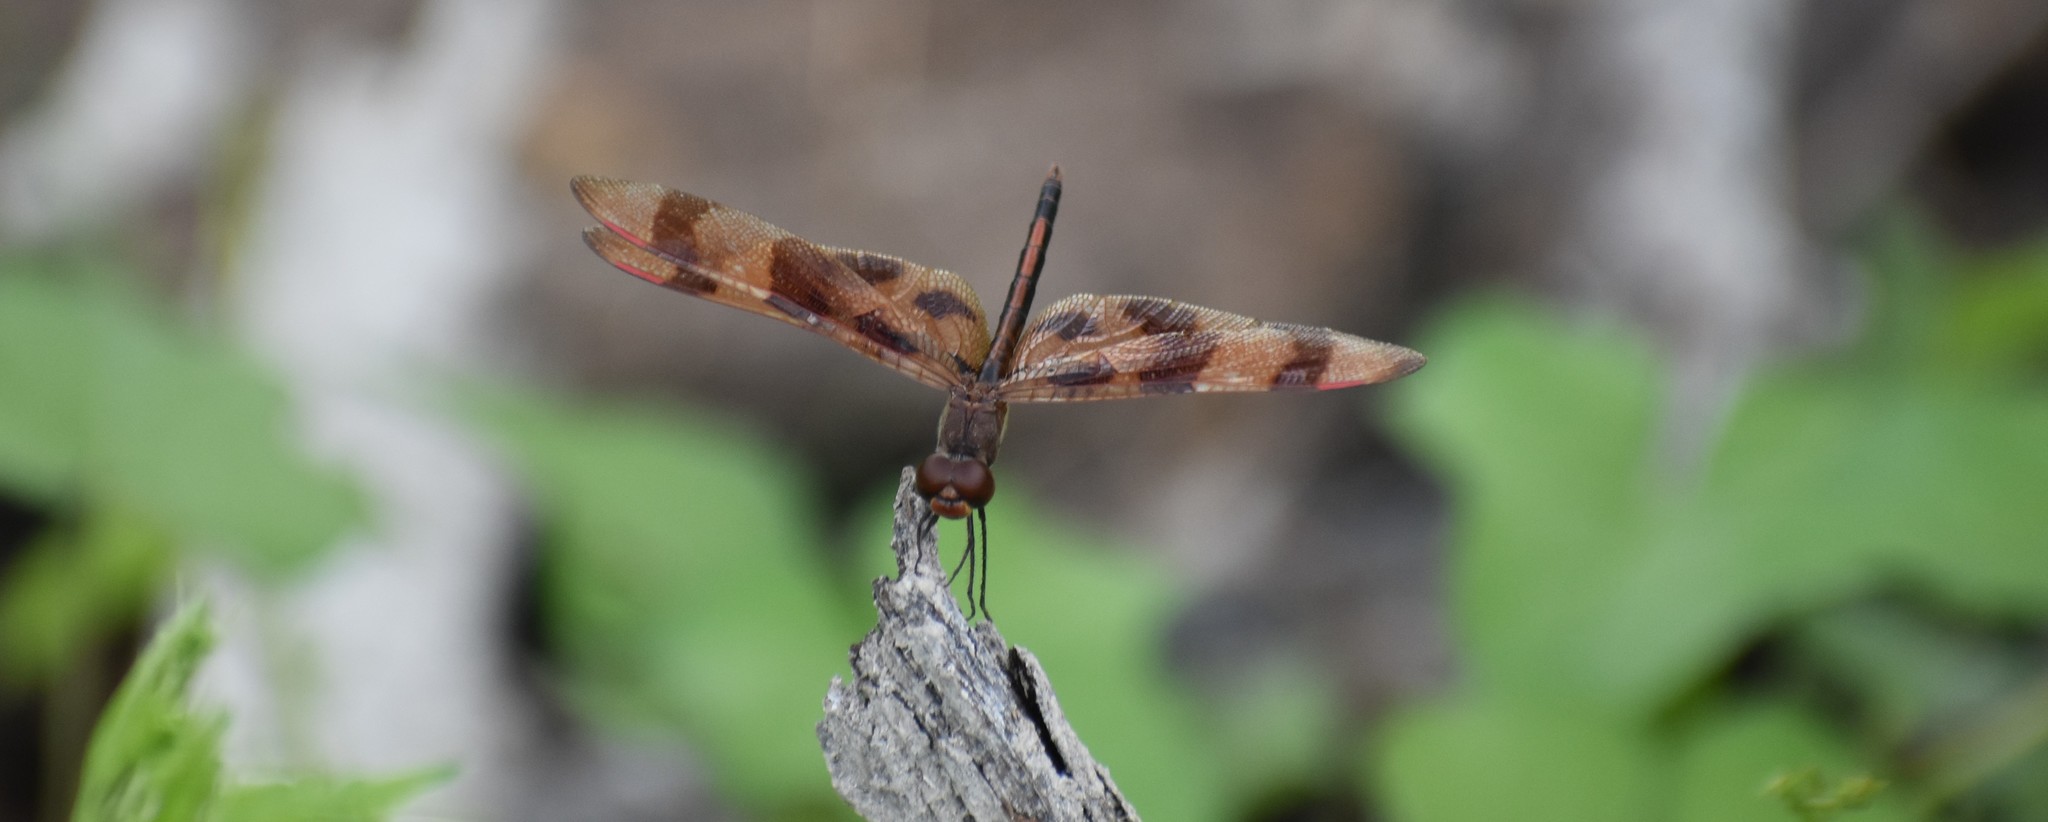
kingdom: Animalia
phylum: Arthropoda
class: Insecta
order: Odonata
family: Libellulidae
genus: Celithemis
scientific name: Celithemis eponina
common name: Halloween pennant
